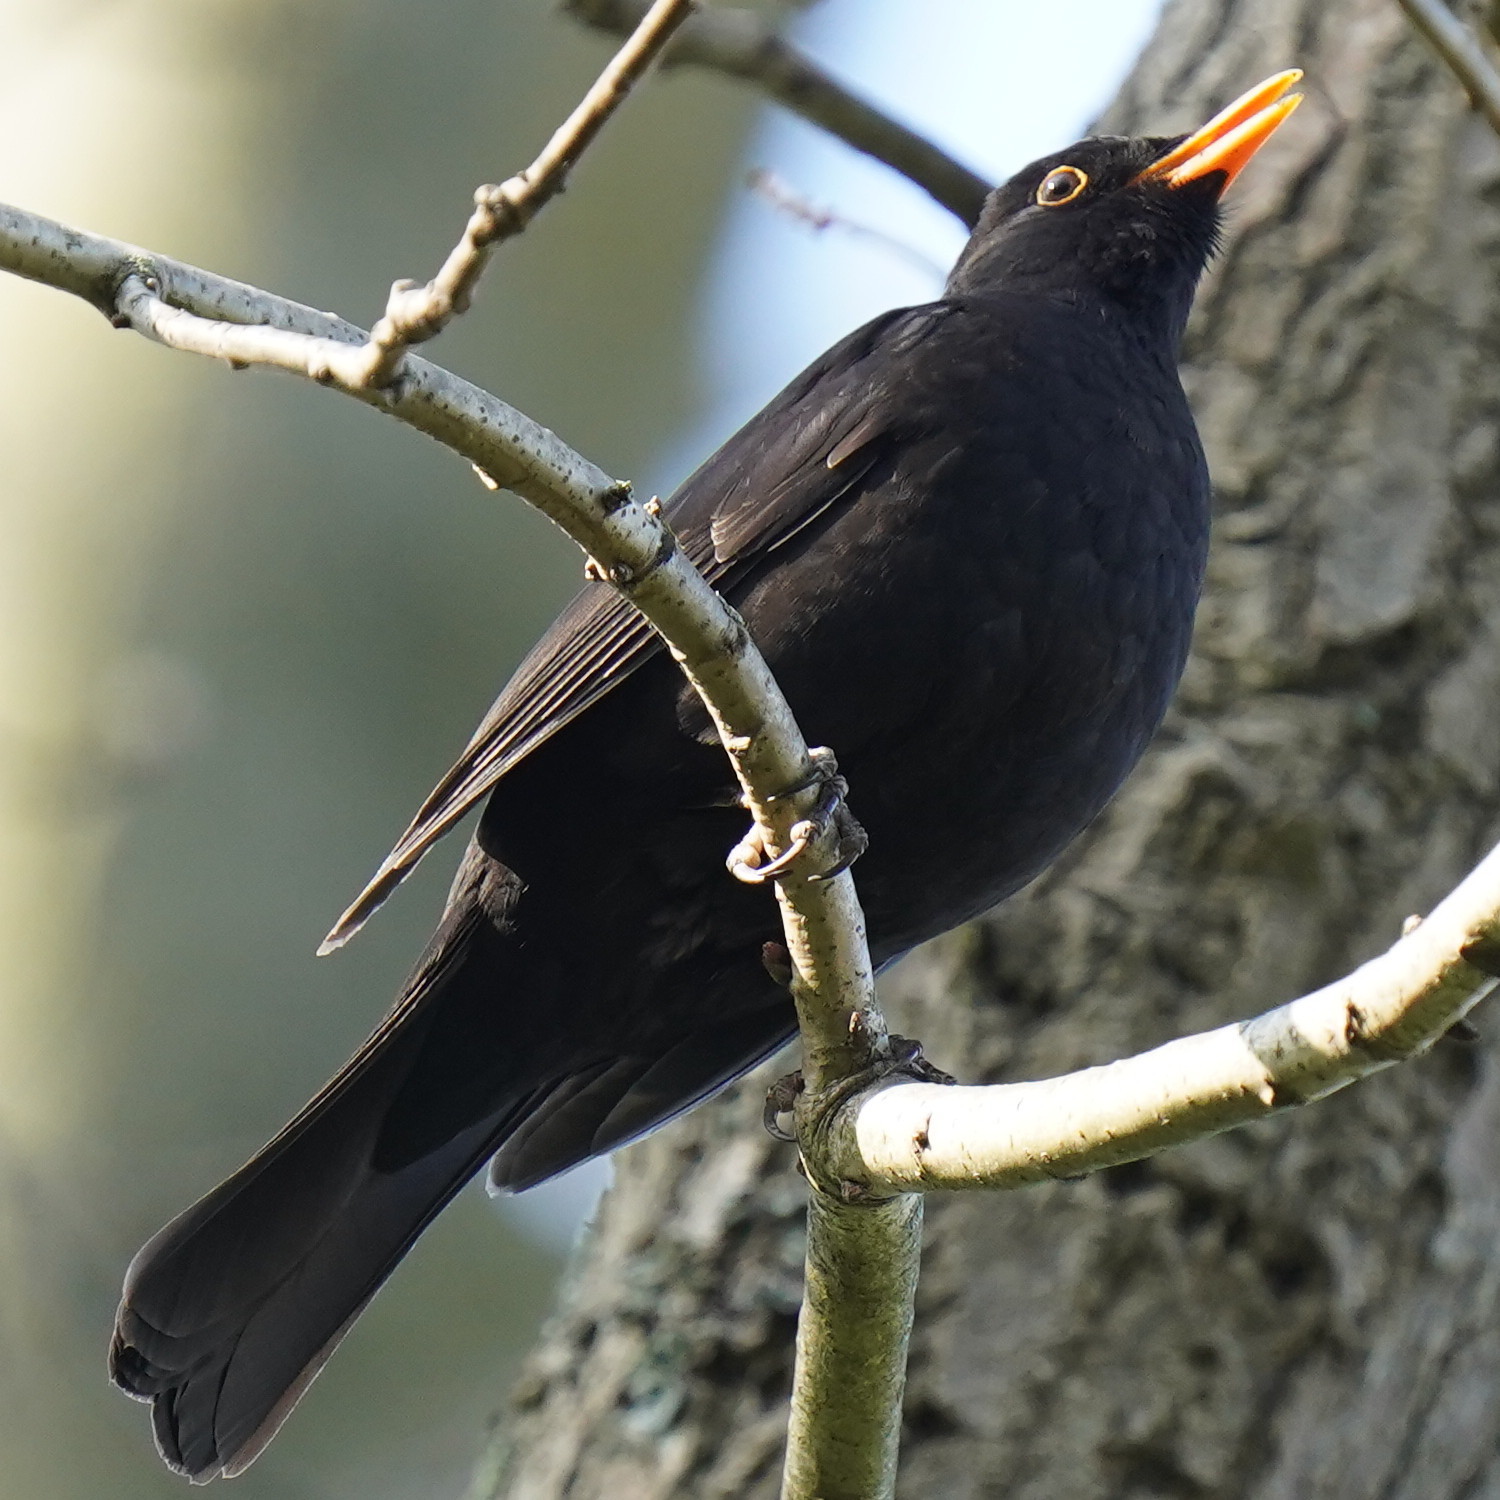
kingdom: Animalia
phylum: Chordata
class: Aves
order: Passeriformes
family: Turdidae
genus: Turdus
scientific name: Turdus merula
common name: Common blackbird
